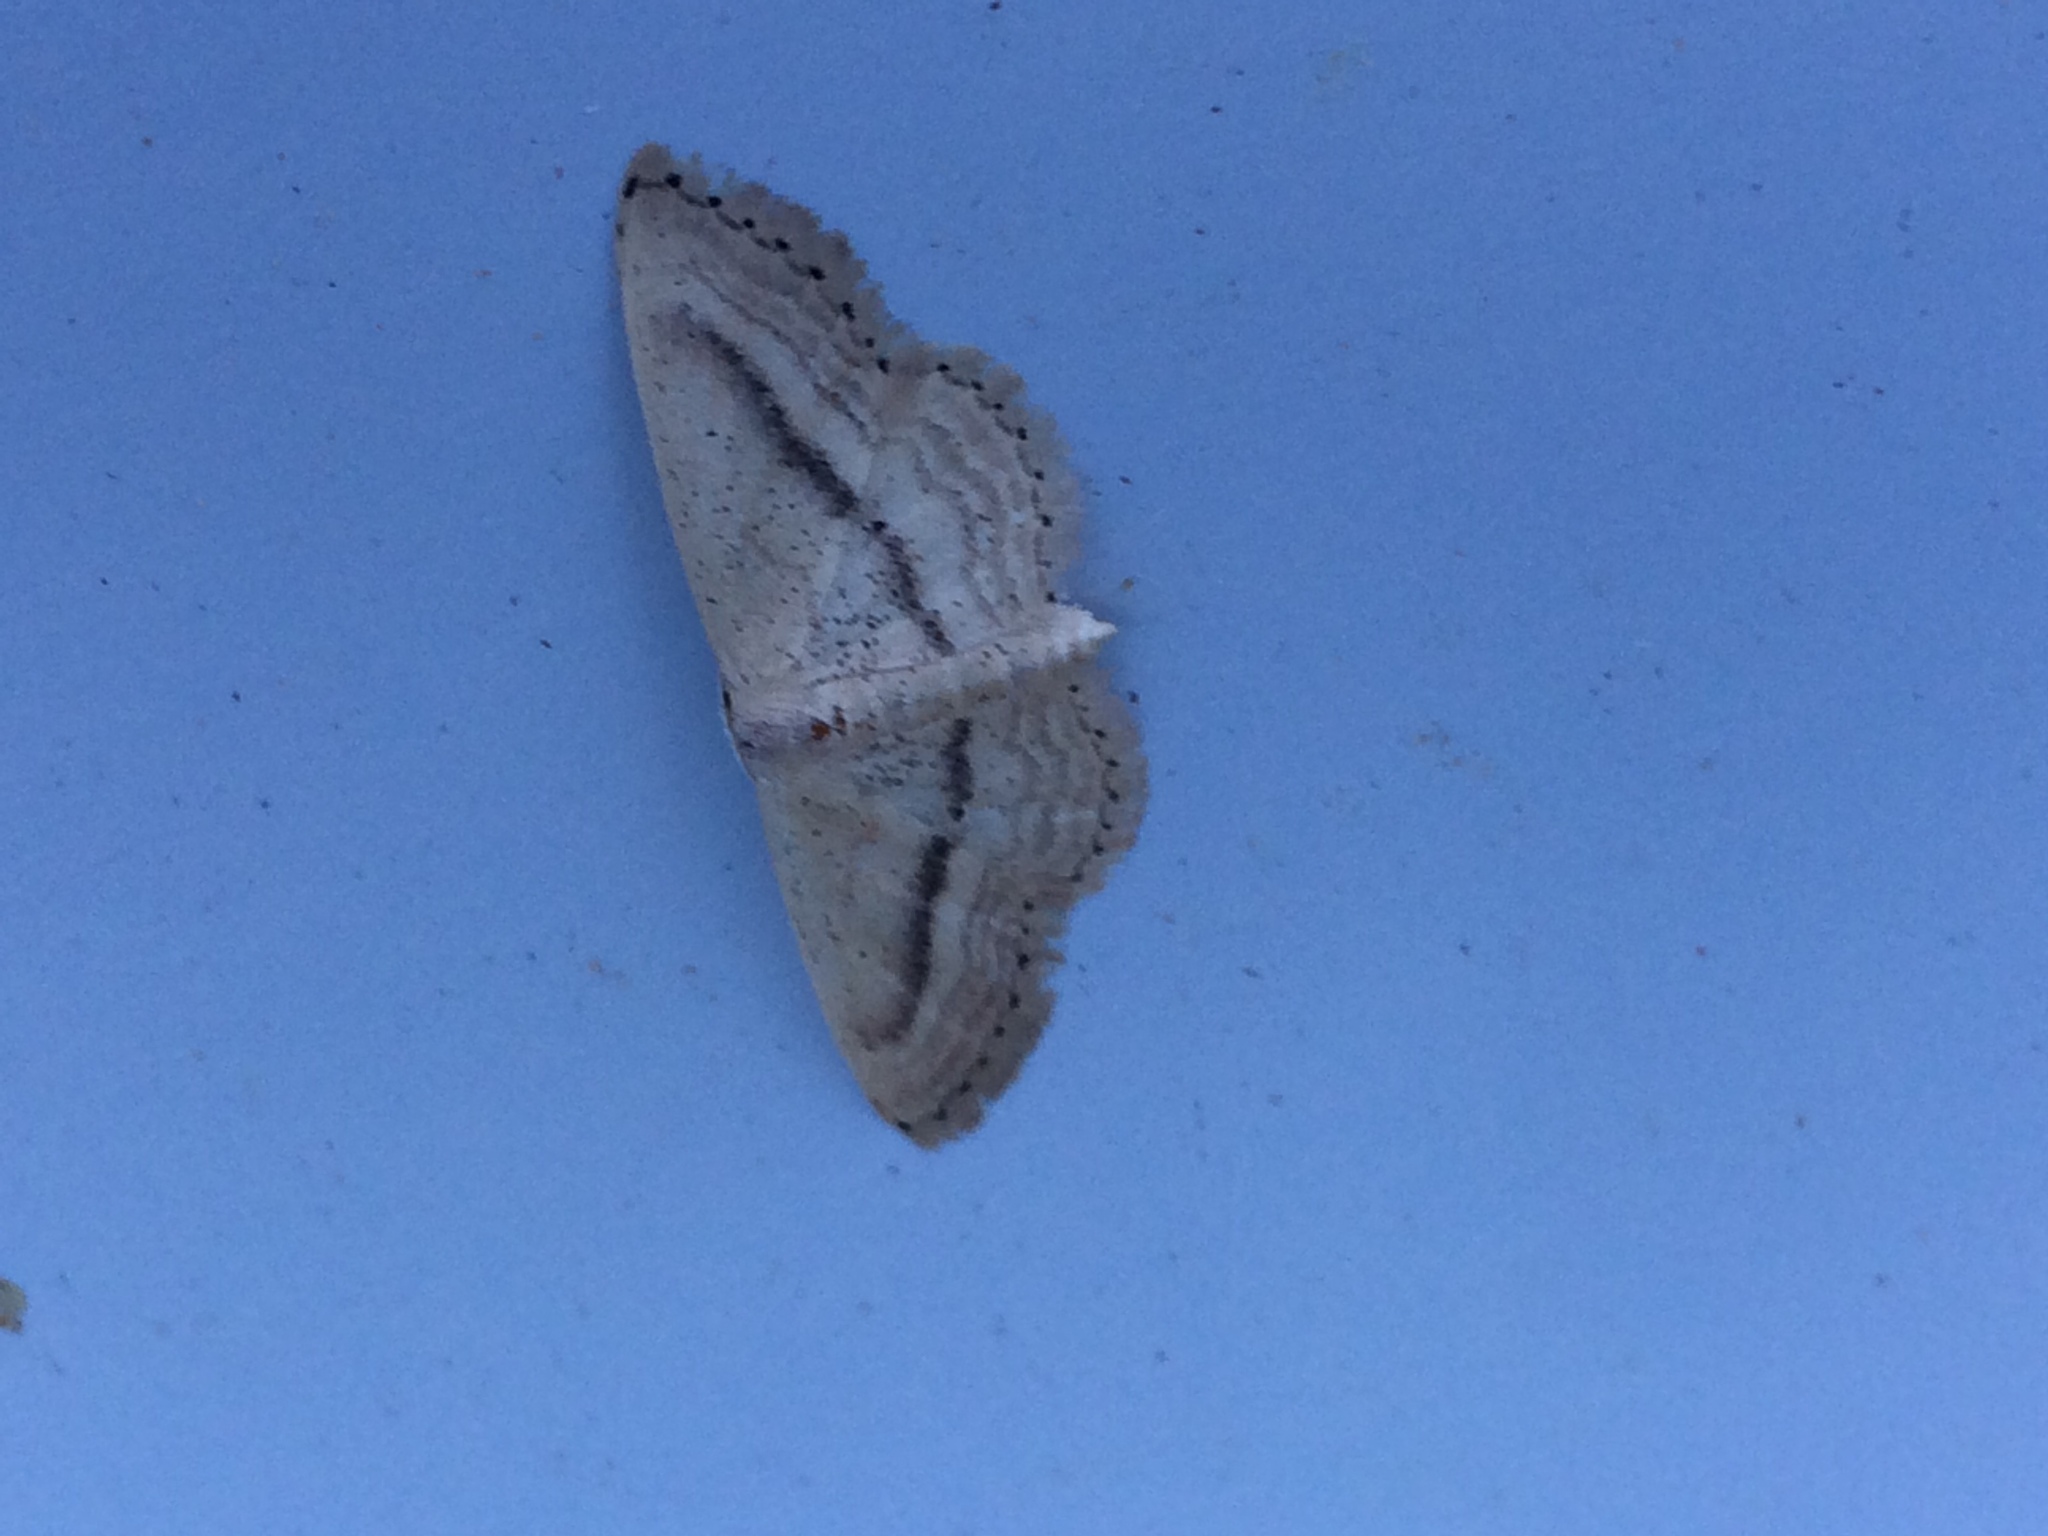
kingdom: Animalia
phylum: Arthropoda
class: Insecta
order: Lepidoptera
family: Geometridae
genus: Idaea
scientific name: Idaea leipnitzi
